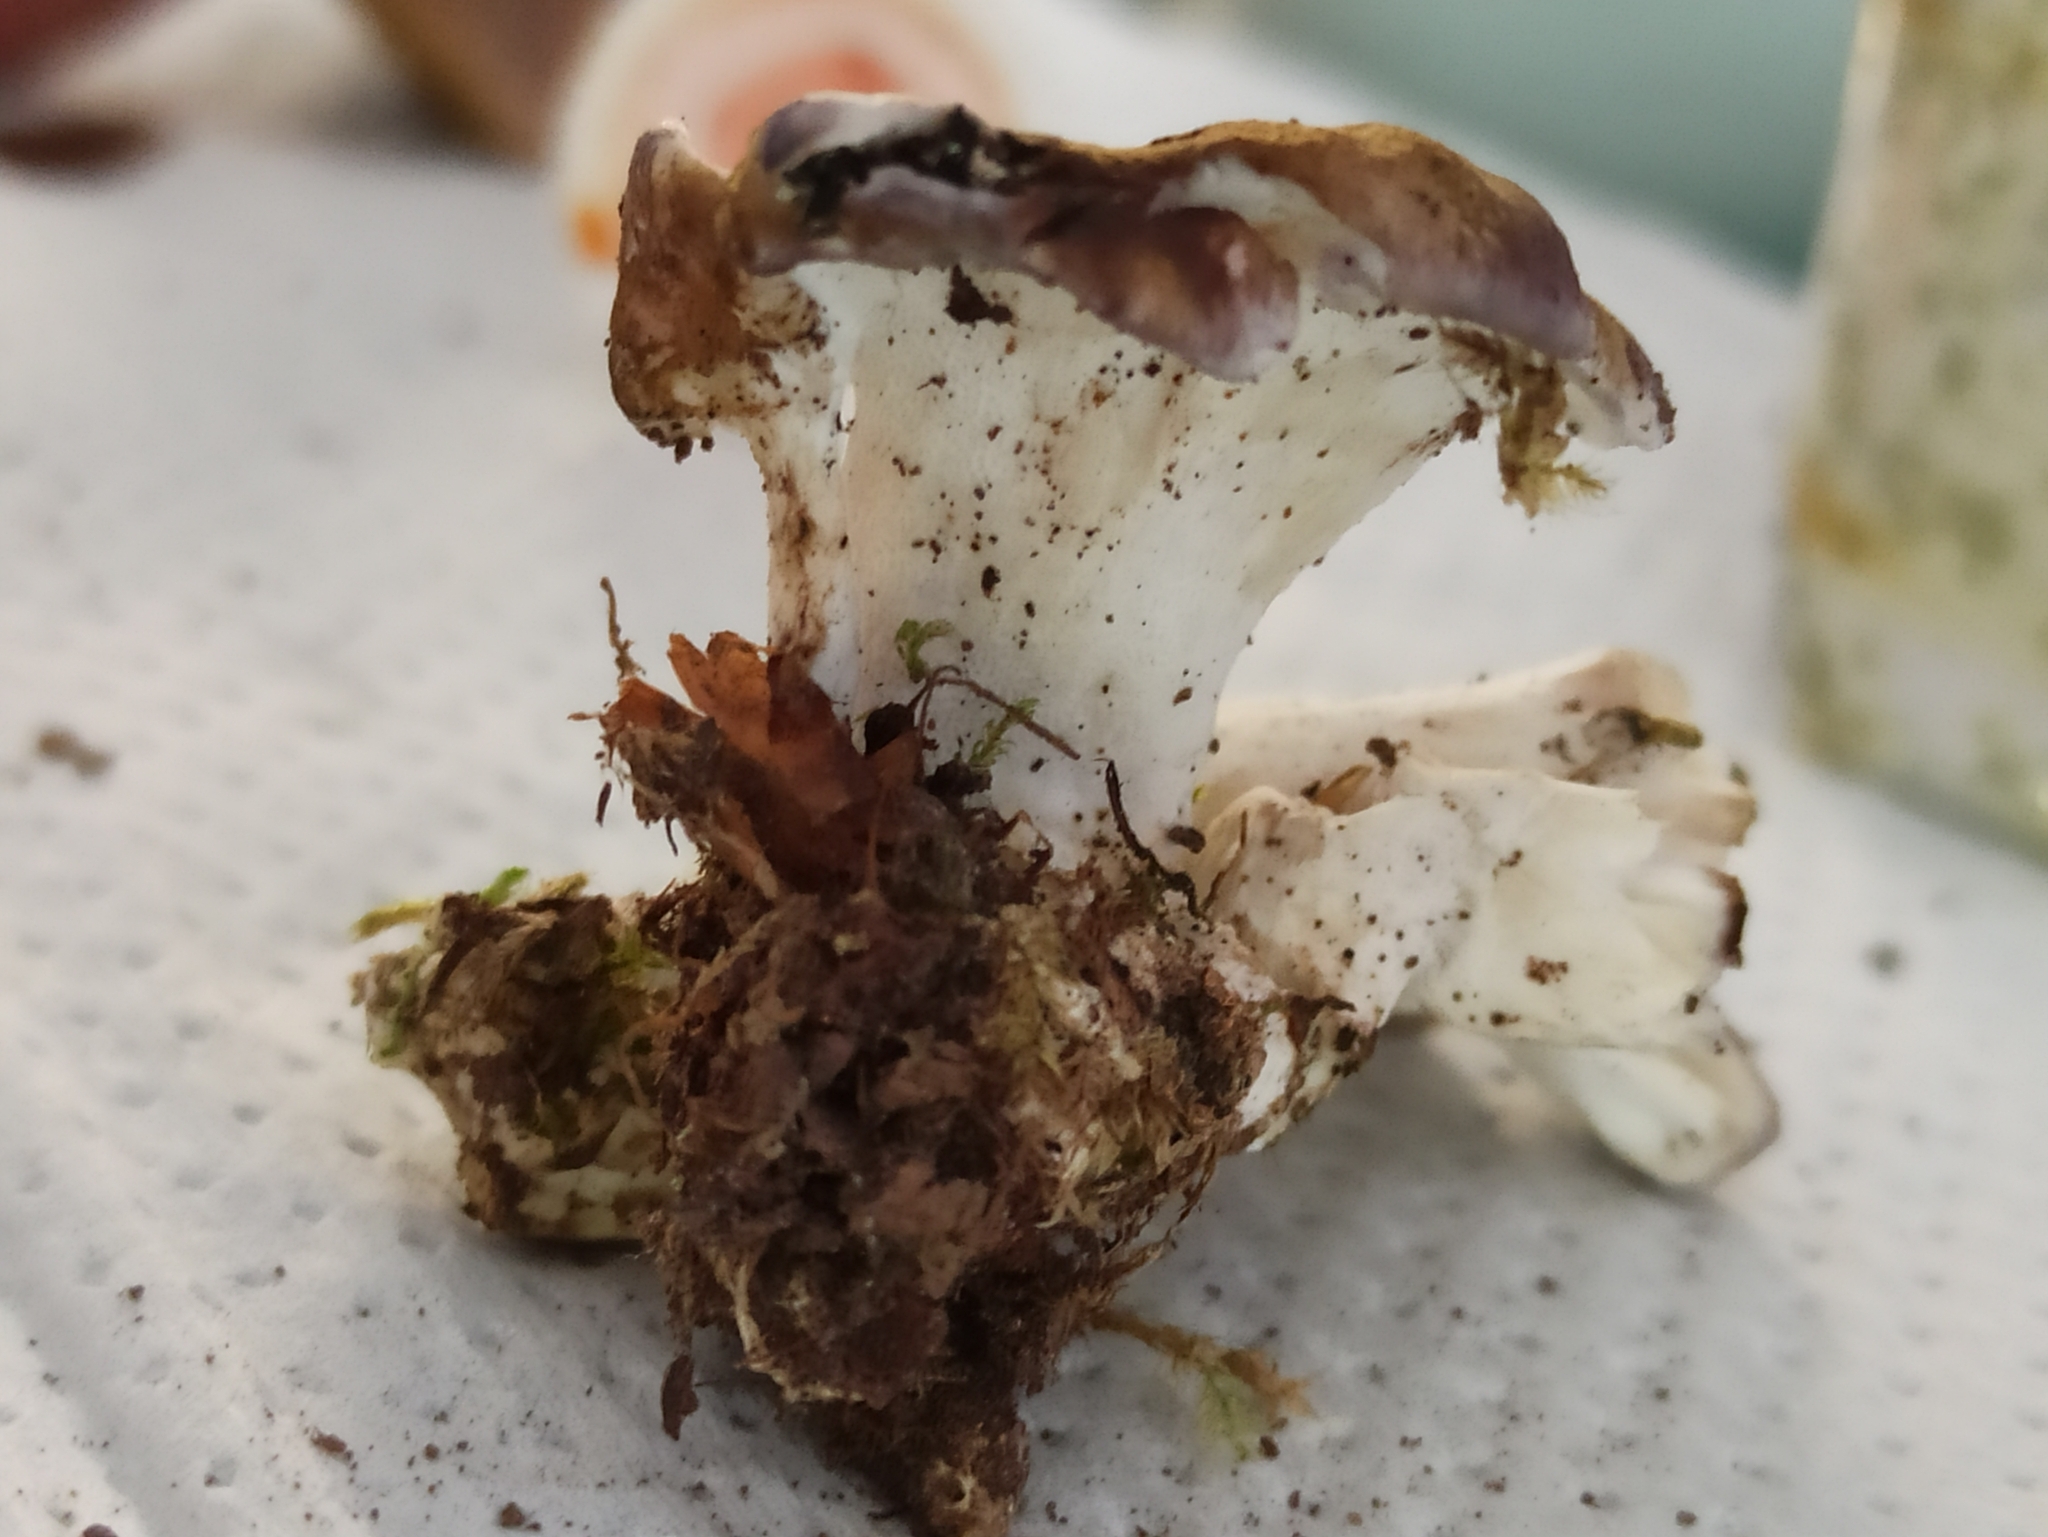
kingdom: Fungi
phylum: Basidiomycota
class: Agaricomycetes
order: Russulales
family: Albatrellaceae
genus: Scutiger
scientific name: Scutiger pes-caprae
